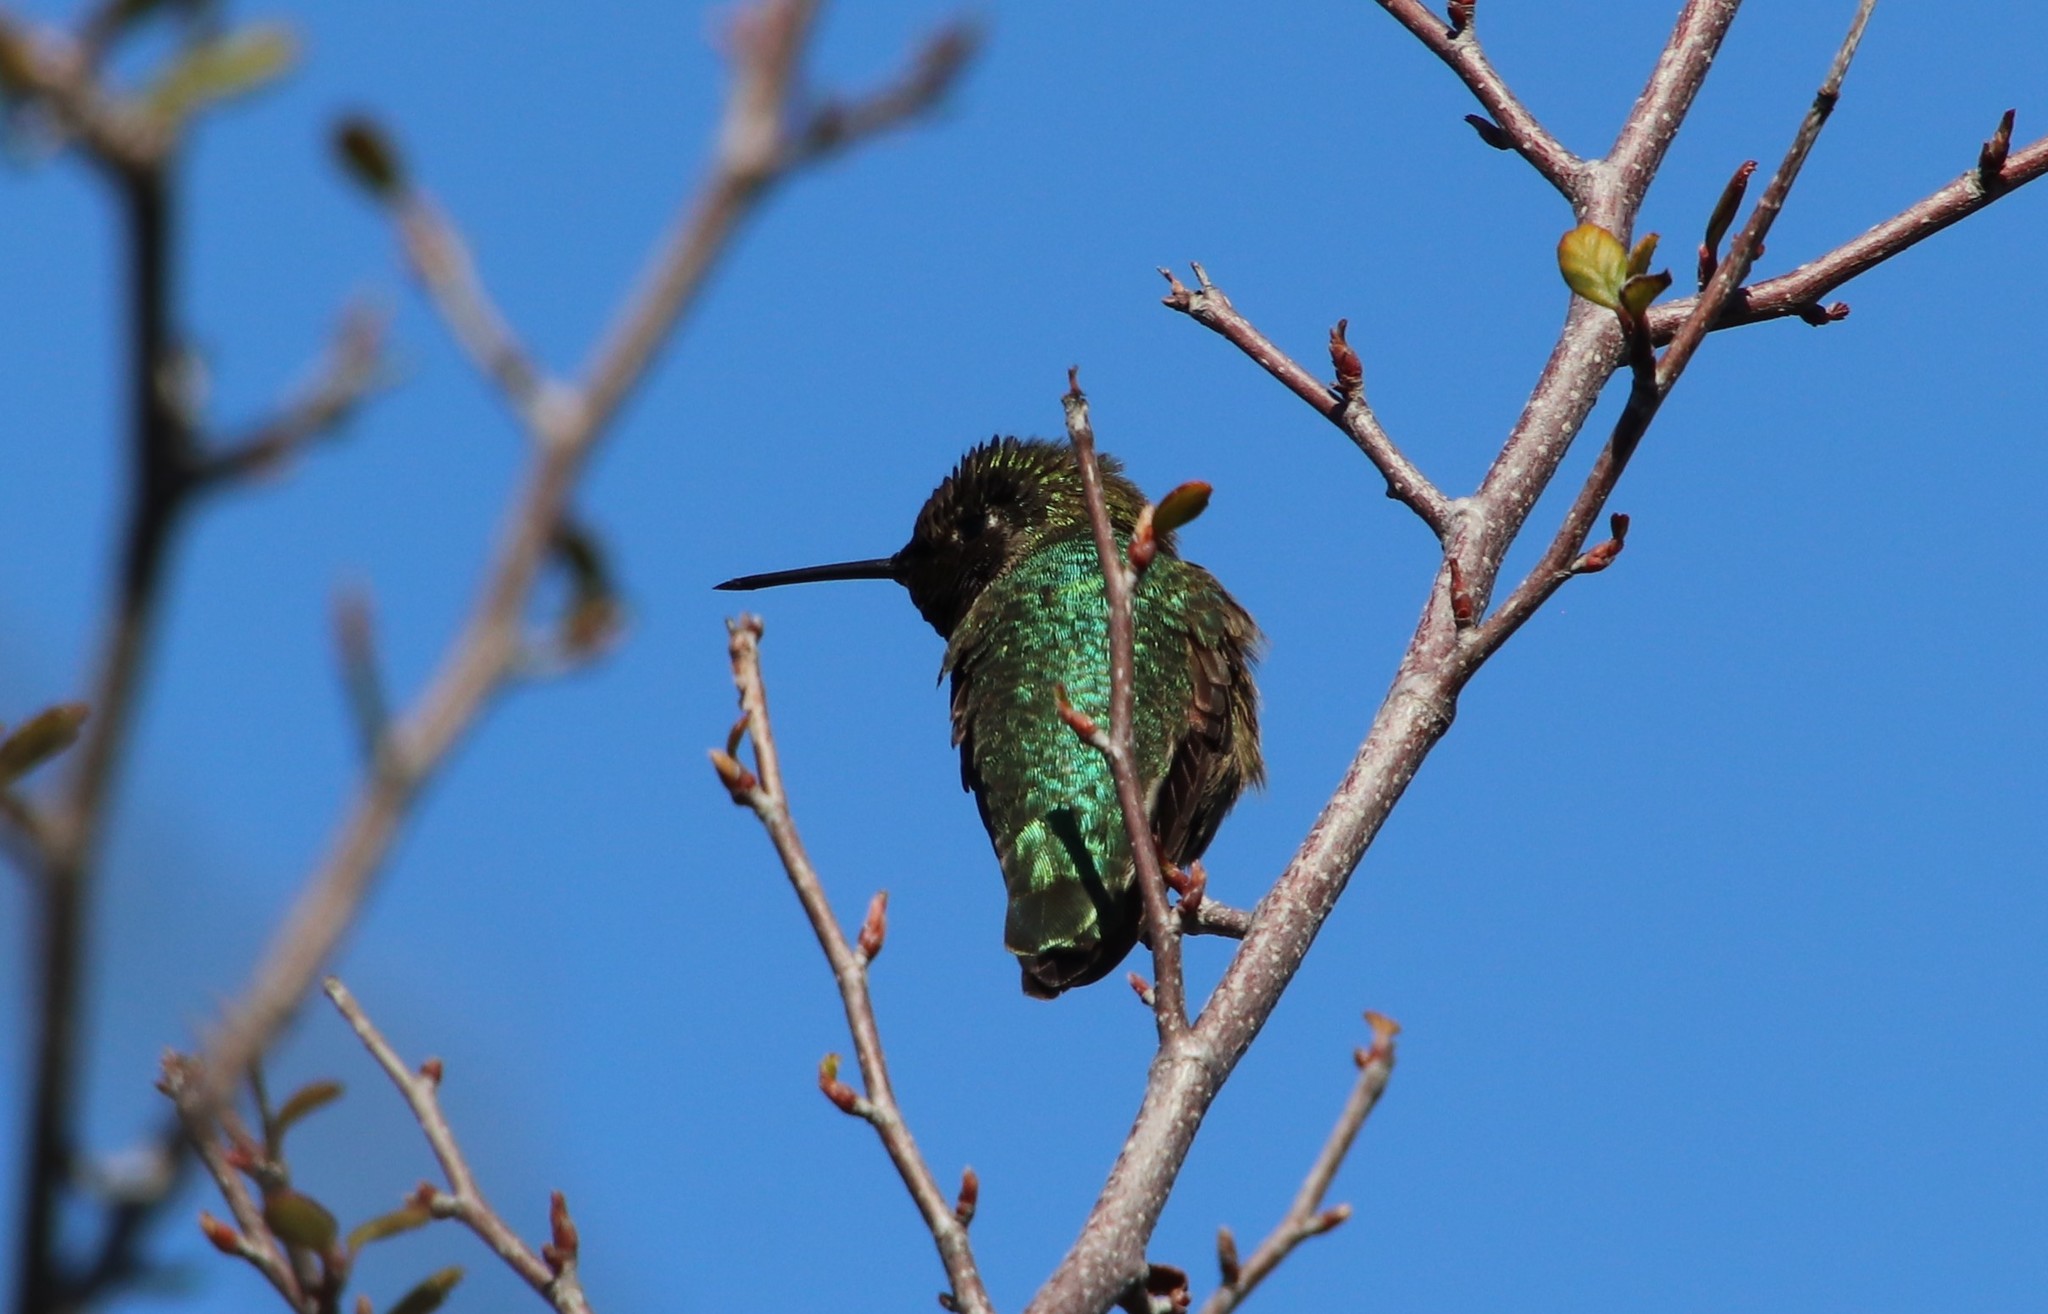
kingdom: Animalia
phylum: Chordata
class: Aves
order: Apodiformes
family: Trochilidae
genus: Calypte
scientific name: Calypte anna
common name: Anna's hummingbird
